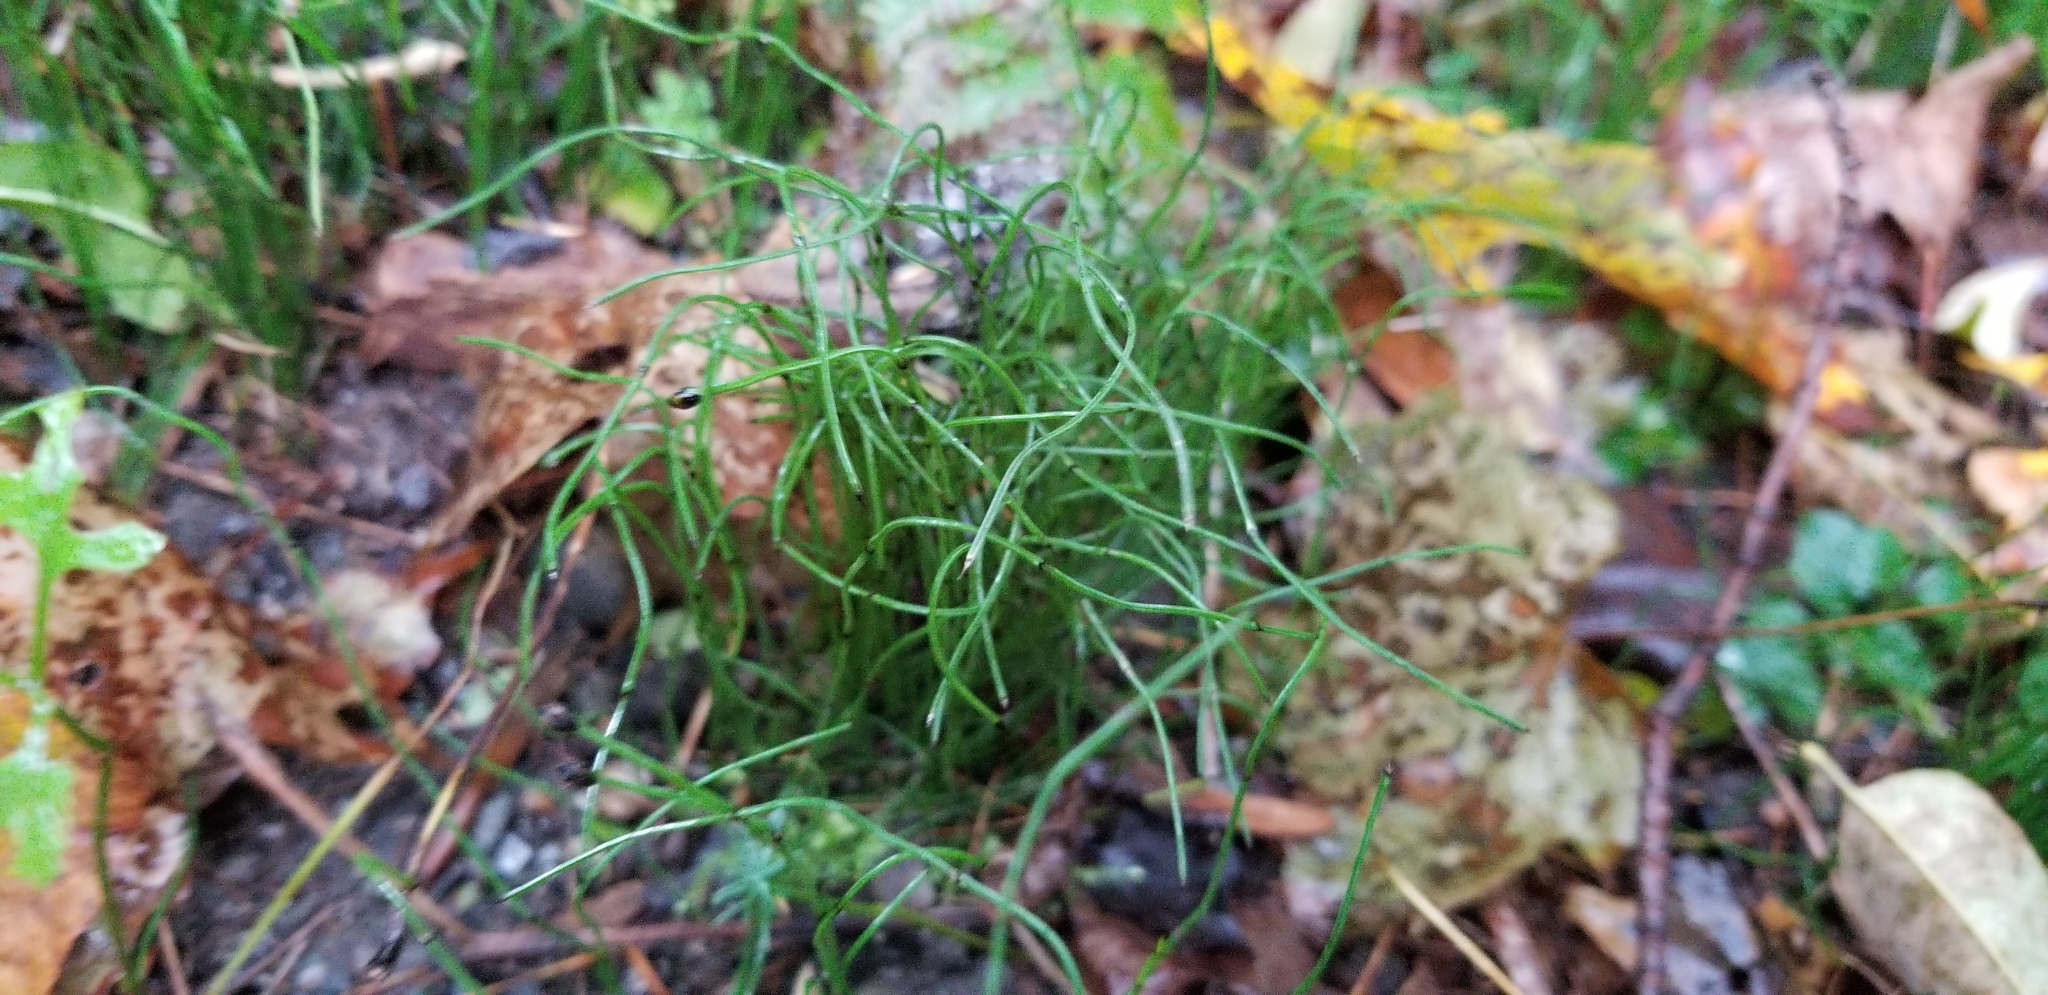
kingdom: Plantae
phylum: Tracheophyta
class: Polypodiopsida
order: Equisetales
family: Equisetaceae
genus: Equisetum
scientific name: Equisetum scirpoides
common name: Delicate horsetail
